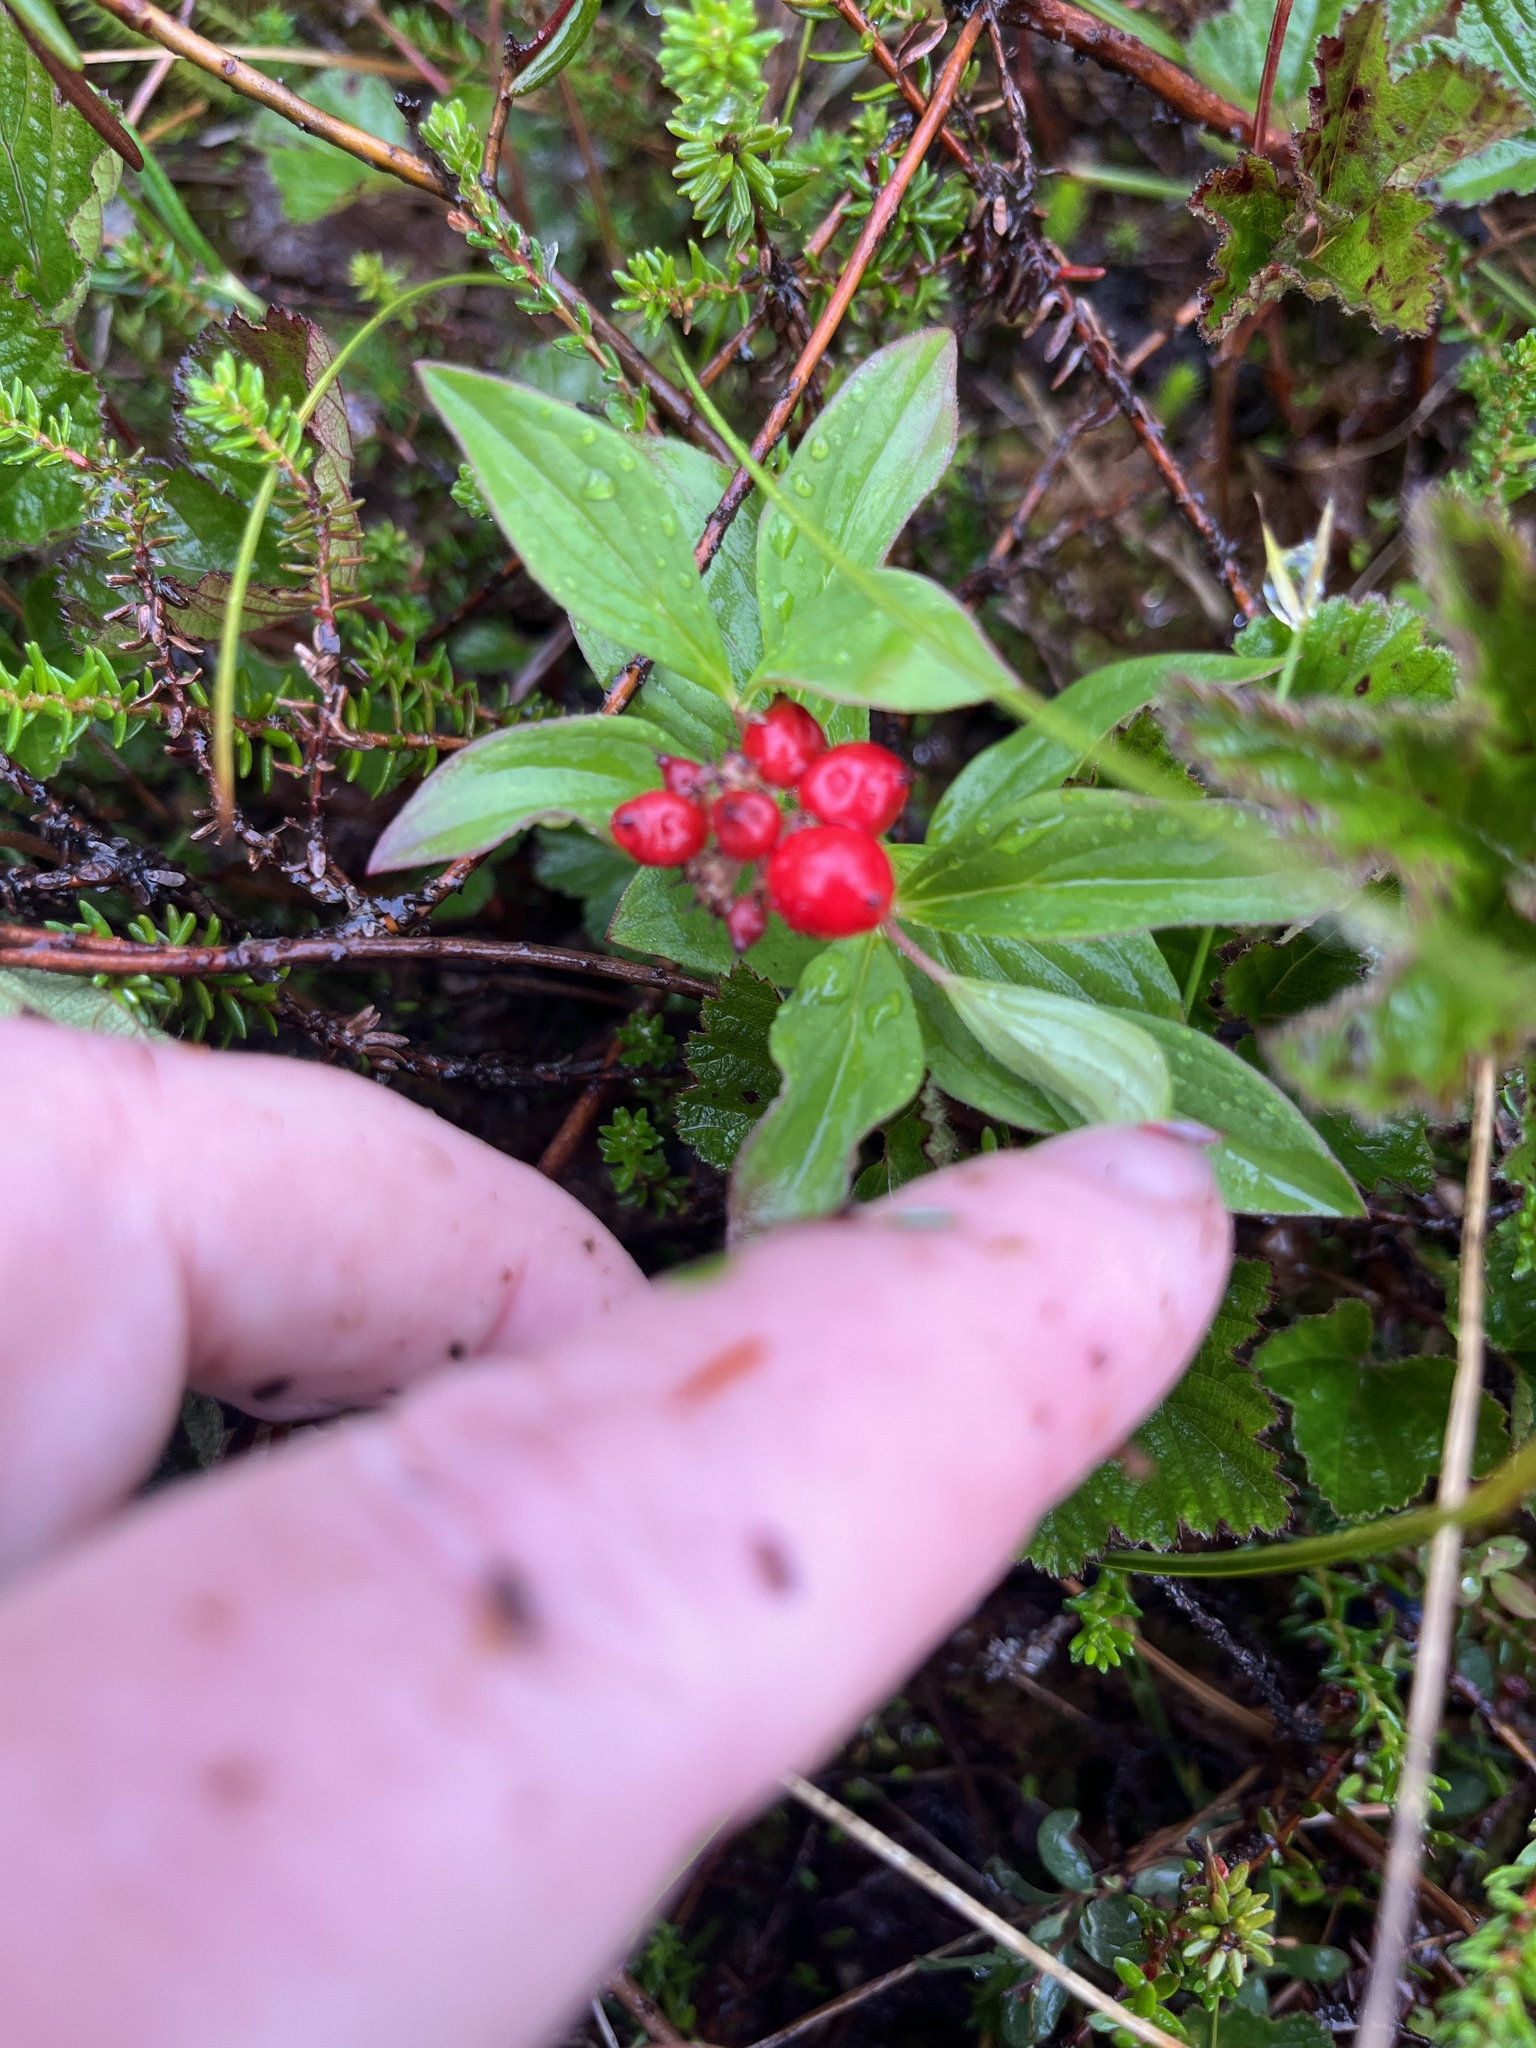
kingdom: Plantae
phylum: Tracheophyta
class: Magnoliopsida
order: Cornales
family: Cornaceae
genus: Cornus
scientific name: Cornus canadensis
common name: Creeping dogwood
